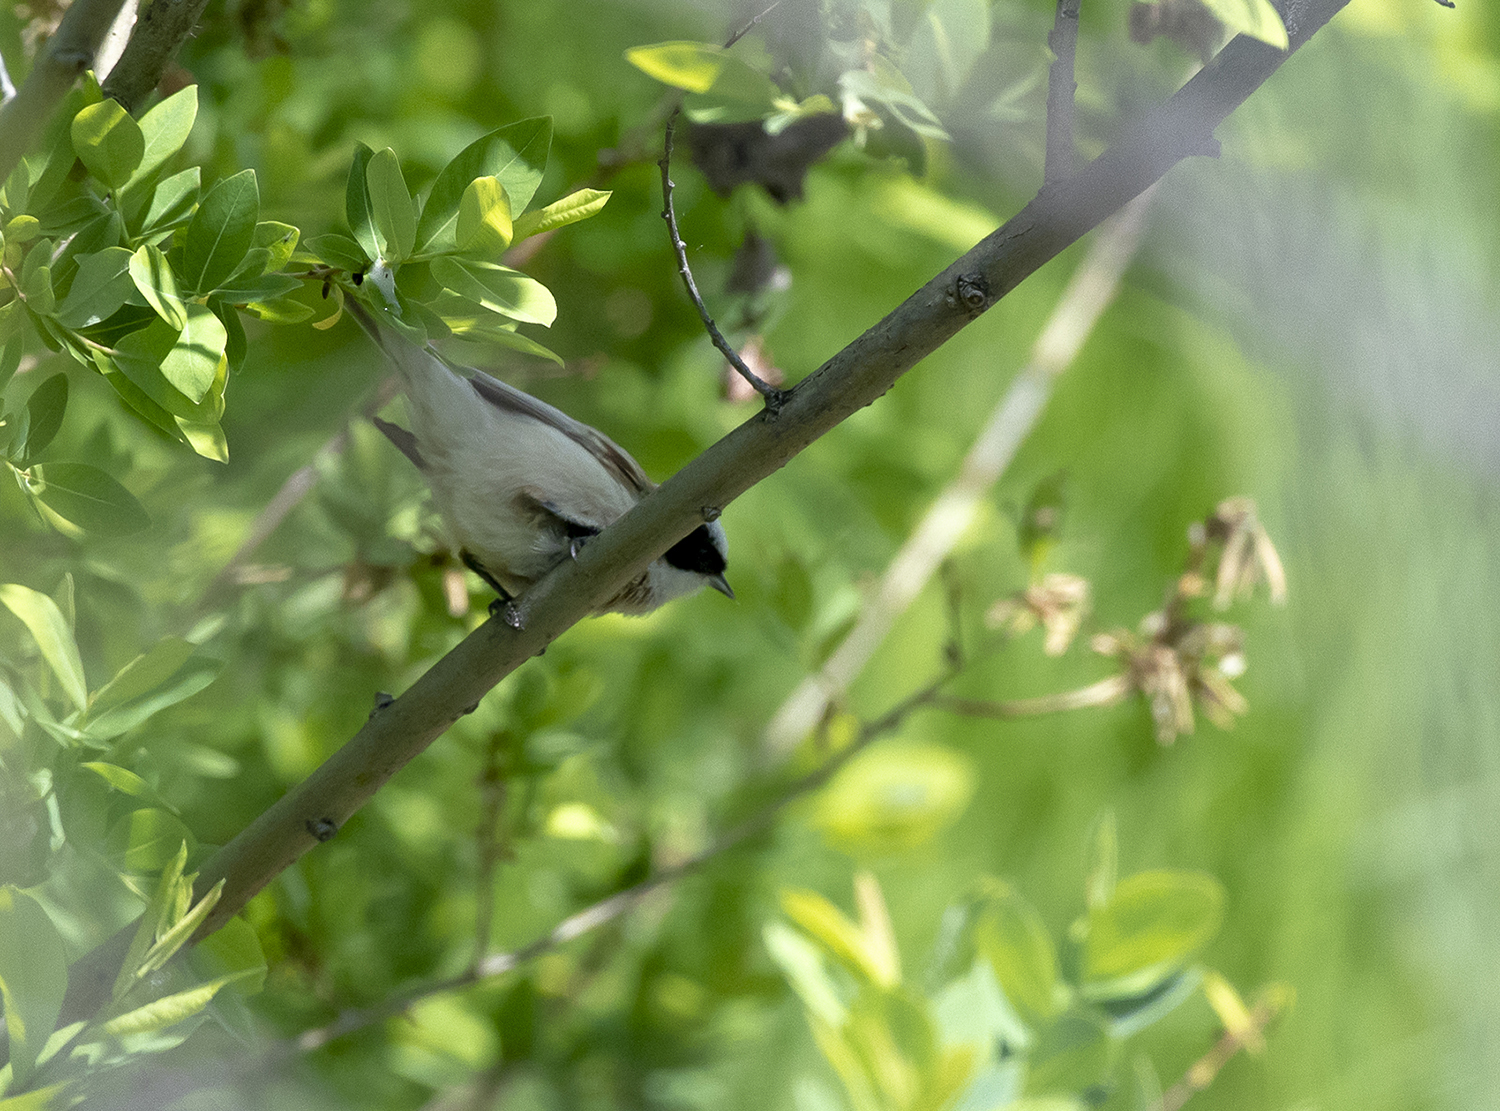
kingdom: Animalia
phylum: Chordata
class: Aves
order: Passeriformes
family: Remizidae
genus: Remiz
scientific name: Remiz coronatus
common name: White-crowned penduline tit
